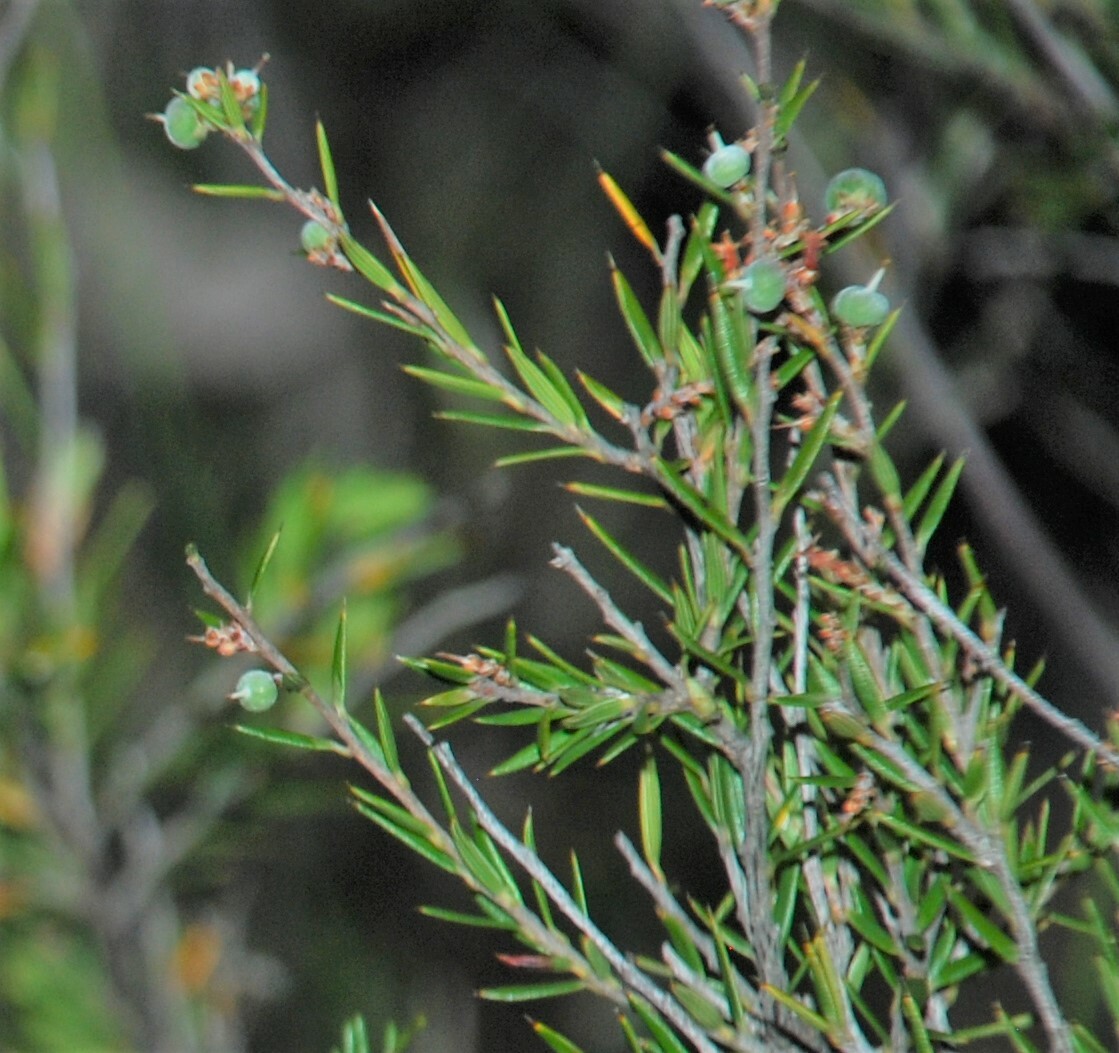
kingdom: Plantae
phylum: Tracheophyta
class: Magnoliopsida
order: Ericales
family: Ericaceae
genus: Lissanthe
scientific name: Lissanthe strigosa
